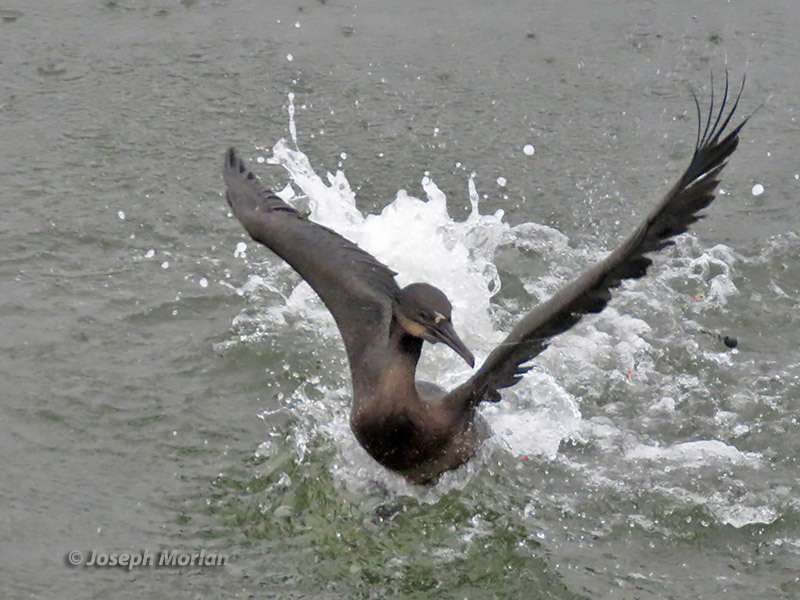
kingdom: Animalia
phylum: Chordata
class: Aves
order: Suliformes
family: Phalacrocoracidae
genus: Urile
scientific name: Urile penicillatus
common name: Brandt's cormorant
